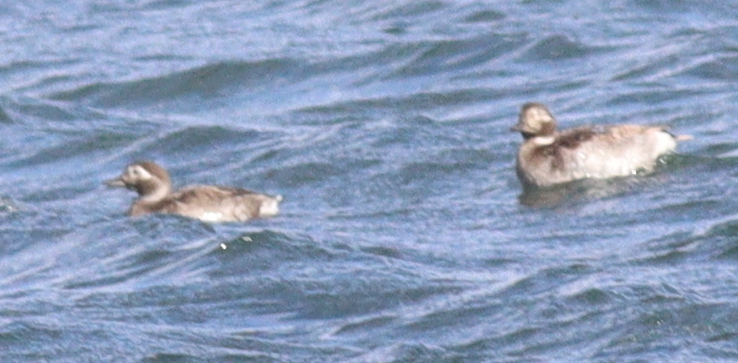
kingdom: Animalia
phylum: Chordata
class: Aves
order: Anseriformes
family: Anatidae
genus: Clangula
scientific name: Clangula hyemalis
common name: Long-tailed duck
